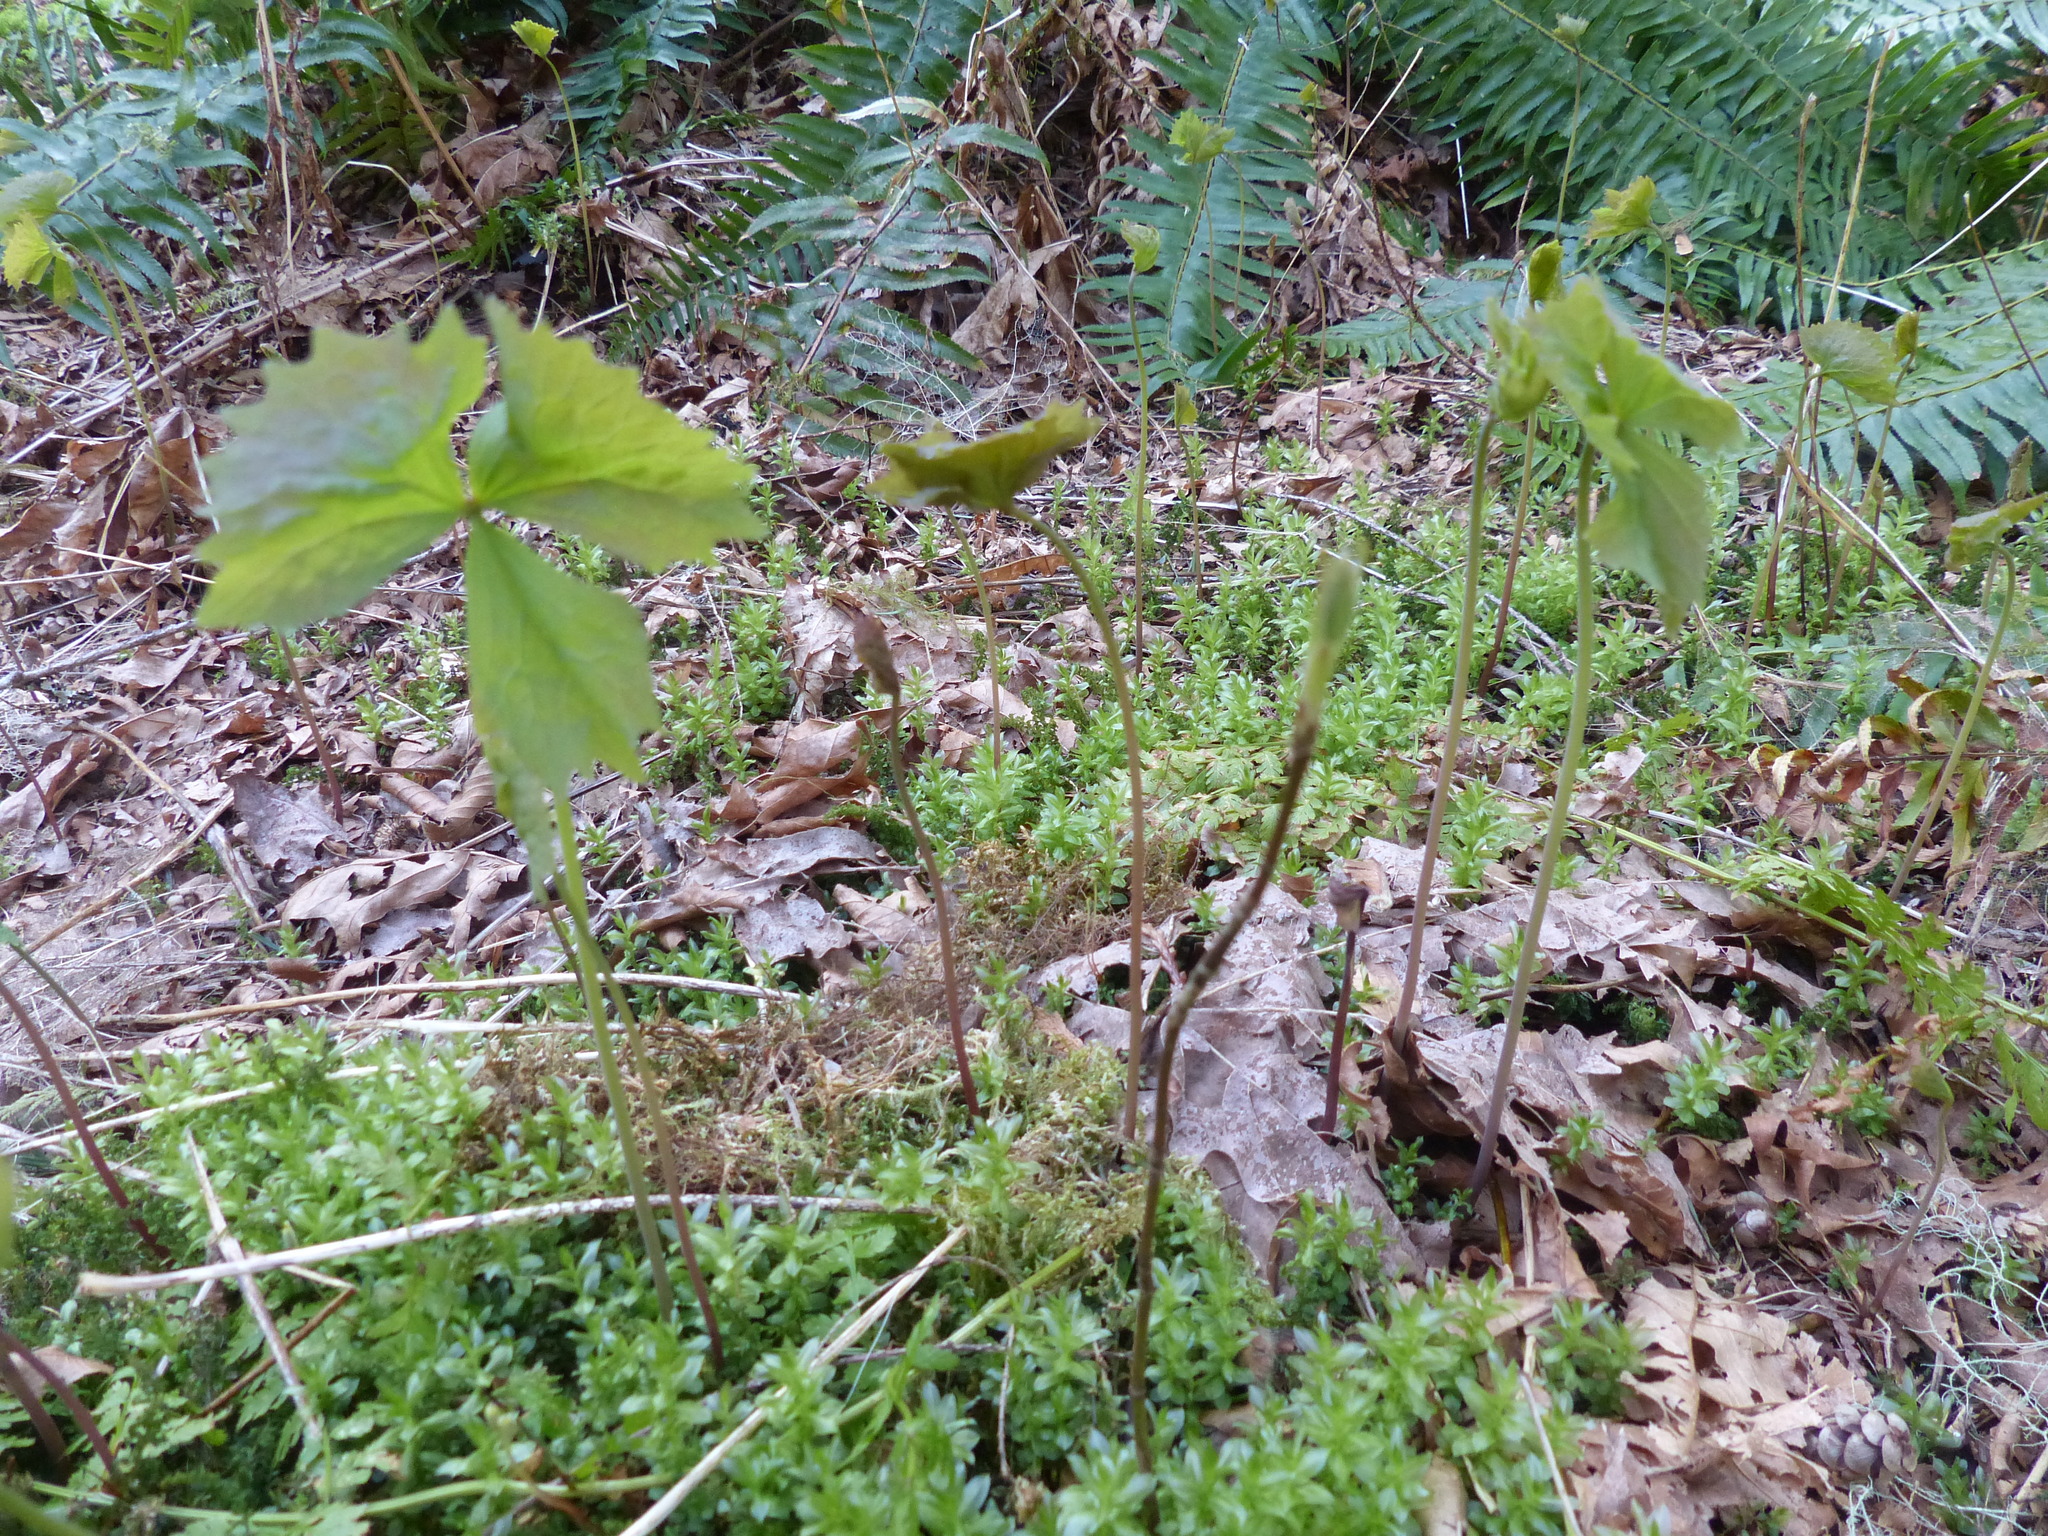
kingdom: Plantae
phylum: Tracheophyta
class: Magnoliopsida
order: Ranunculales
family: Berberidaceae
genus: Achlys
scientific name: Achlys triphylla
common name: Vanilla-leaf
